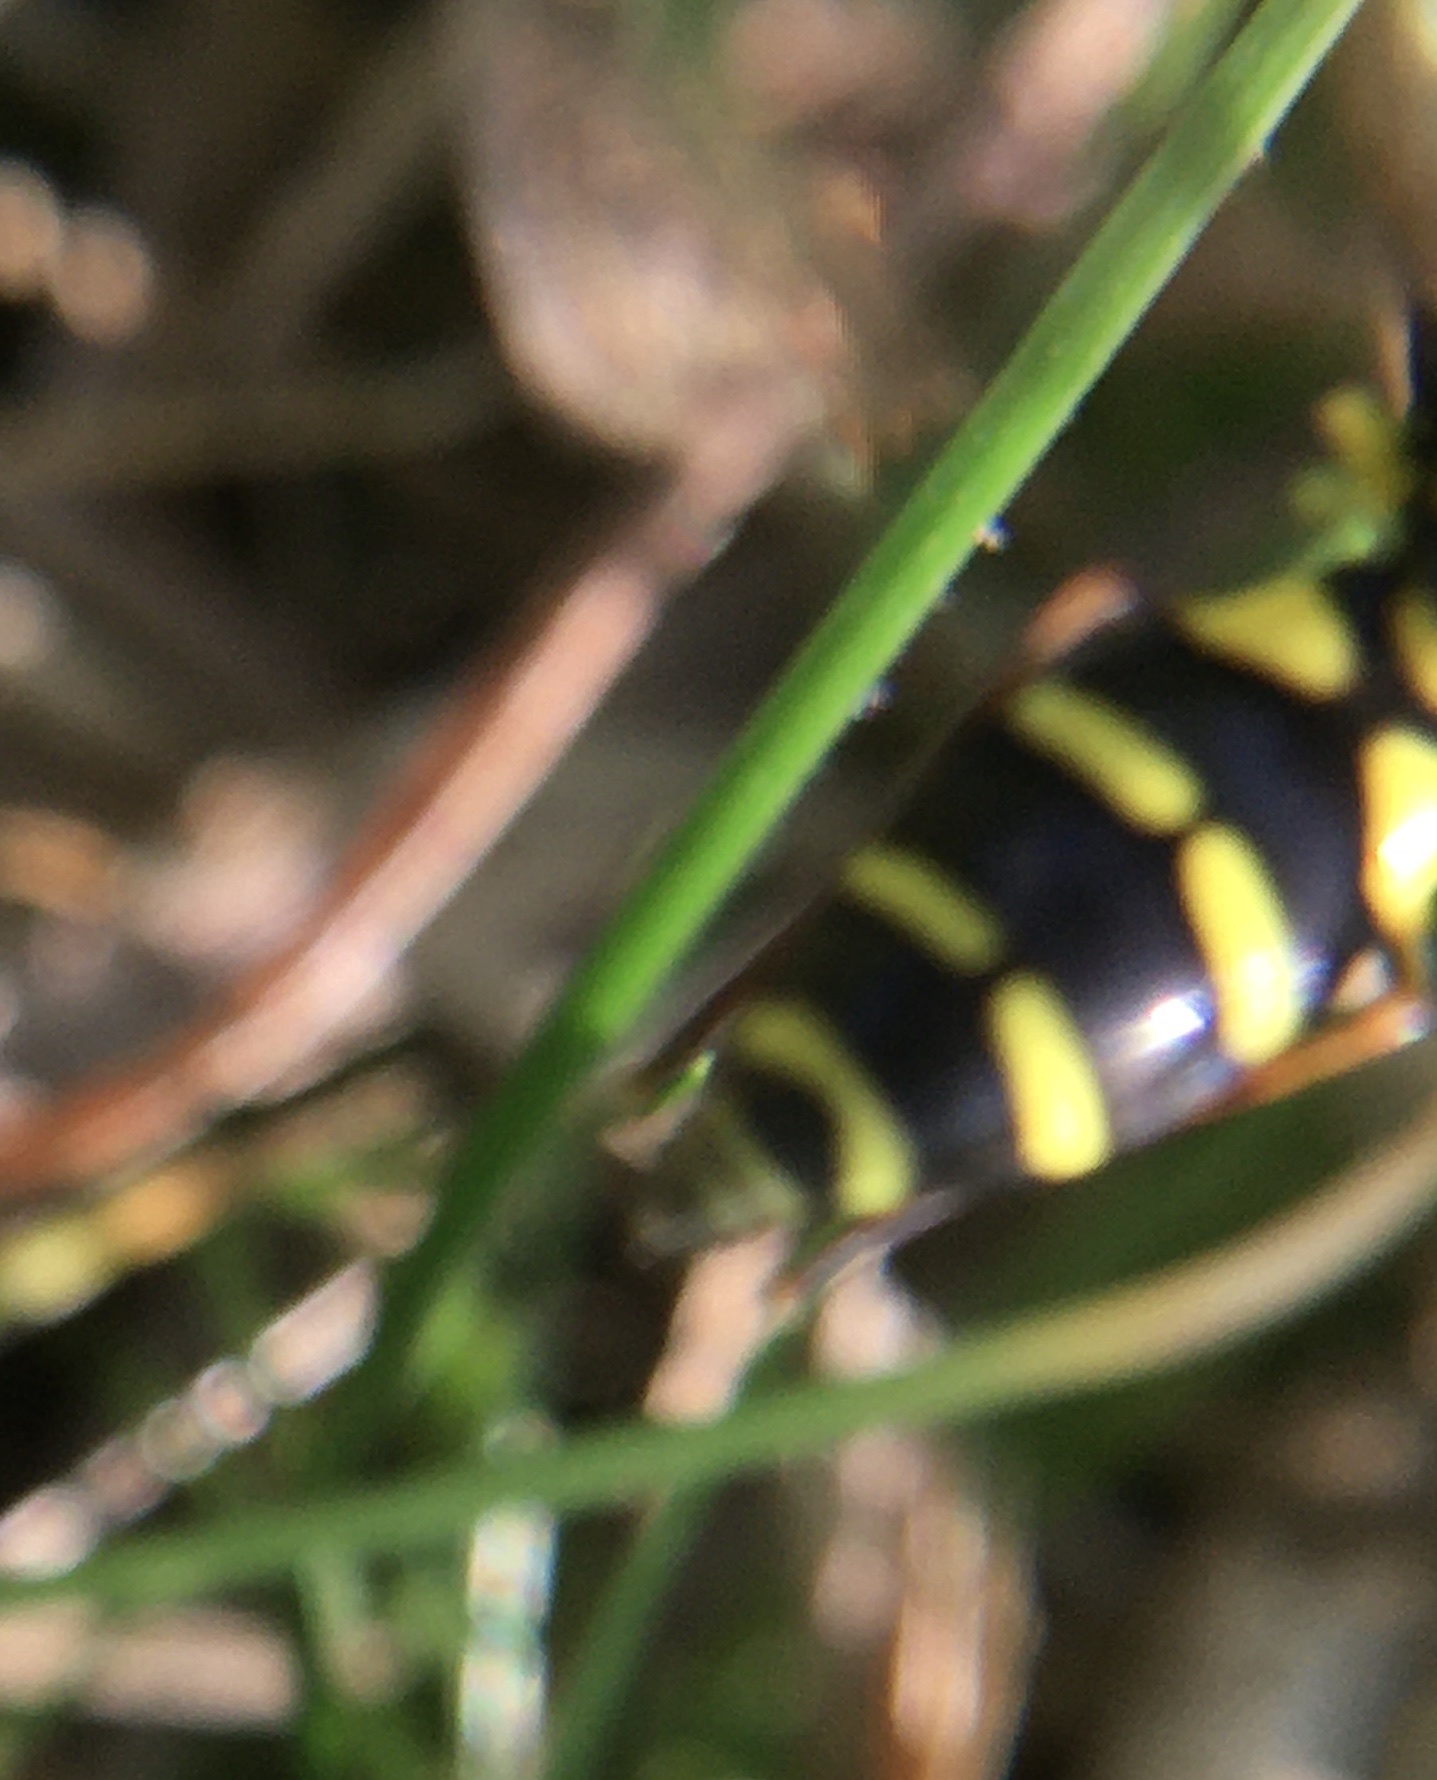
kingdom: Animalia
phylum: Arthropoda
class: Insecta
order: Diptera
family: Syrphidae
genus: Xanthogramma
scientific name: Xanthogramma
